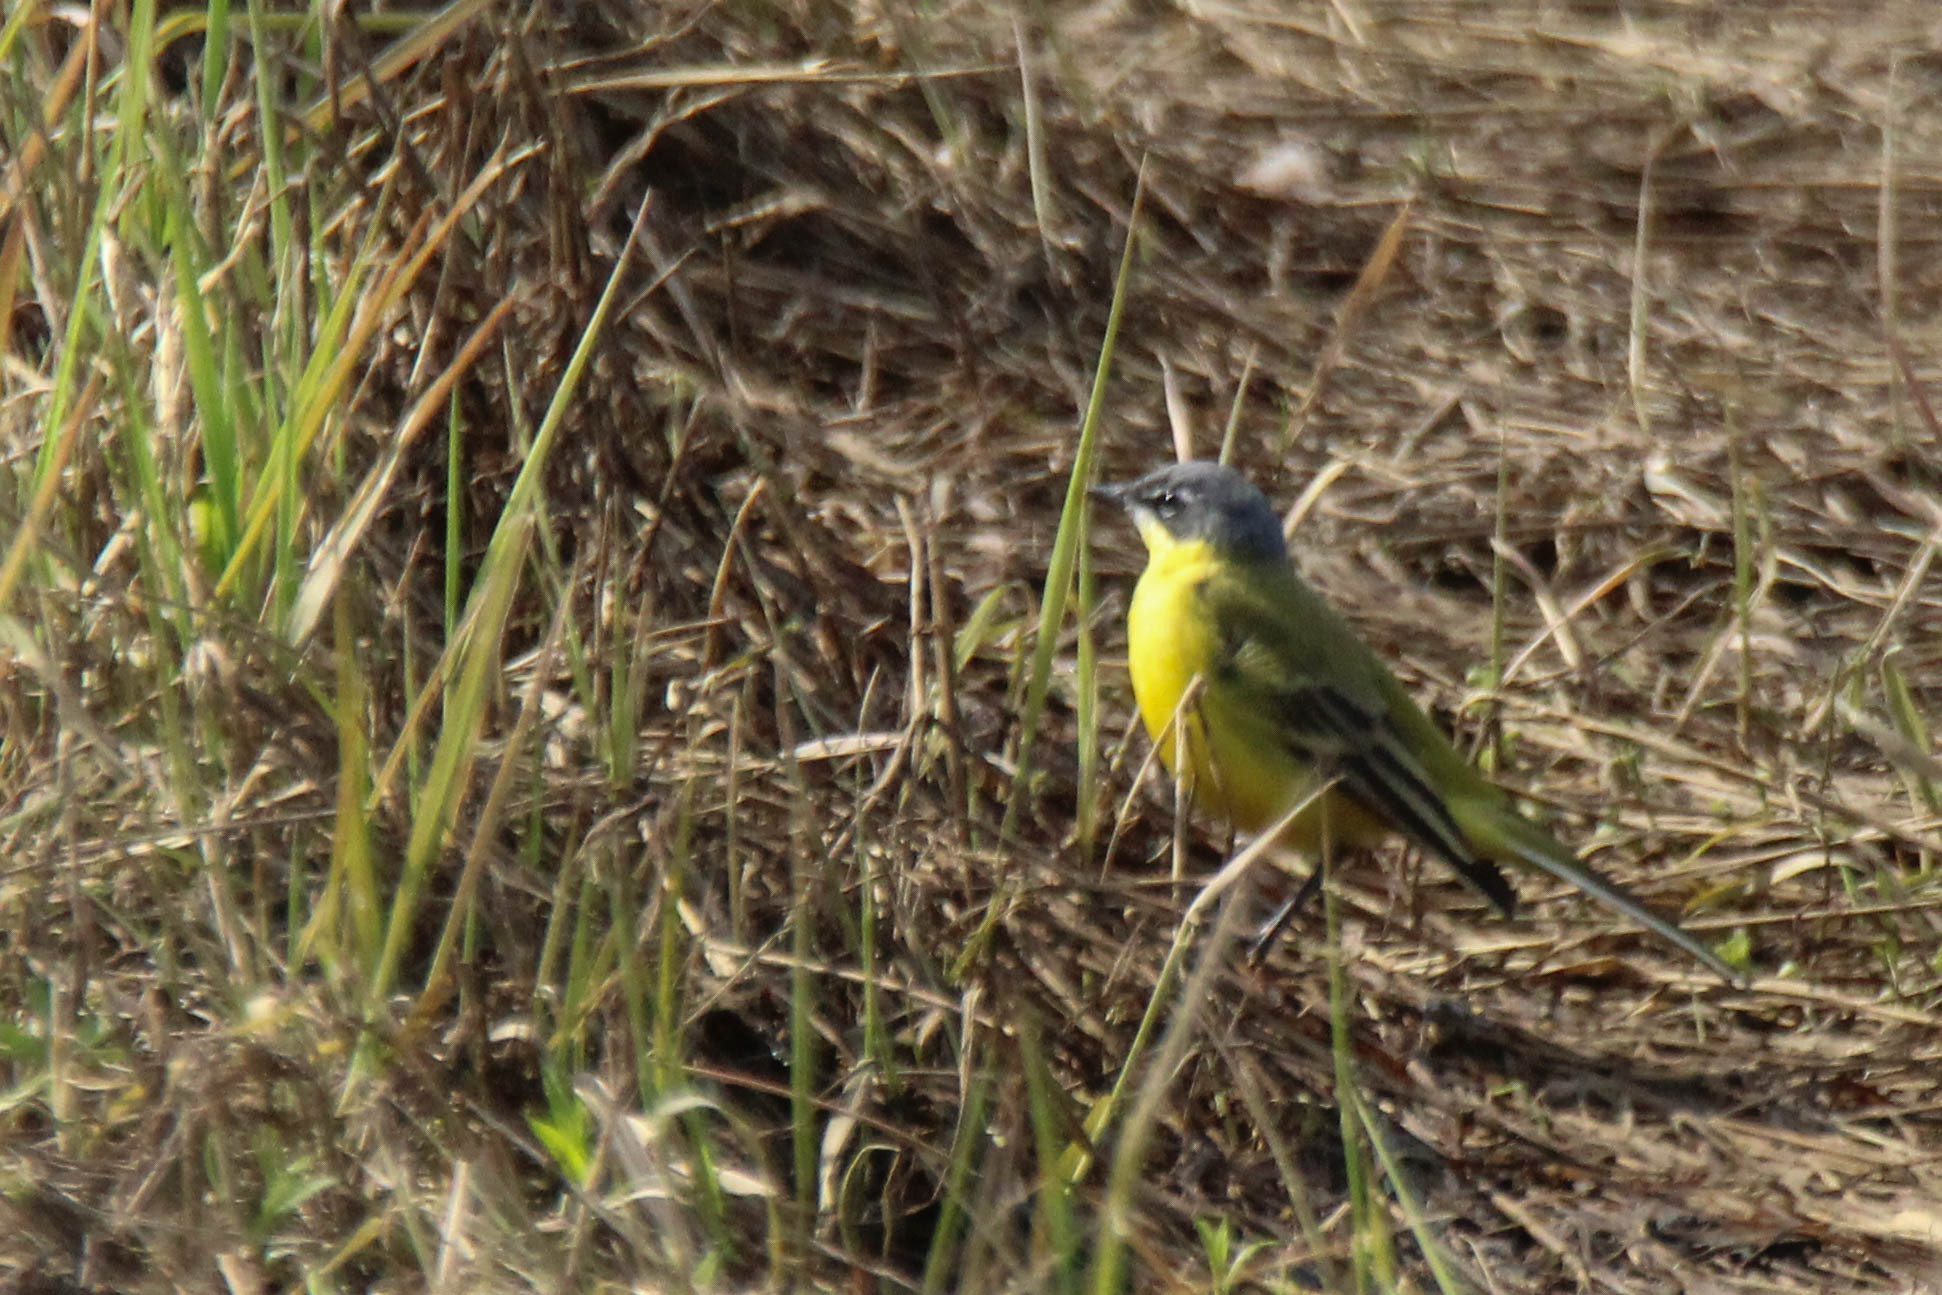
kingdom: Animalia
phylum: Chordata
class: Aves
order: Passeriformes
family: Motacillidae
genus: Motacilla
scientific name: Motacilla flava
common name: Western yellow wagtail
